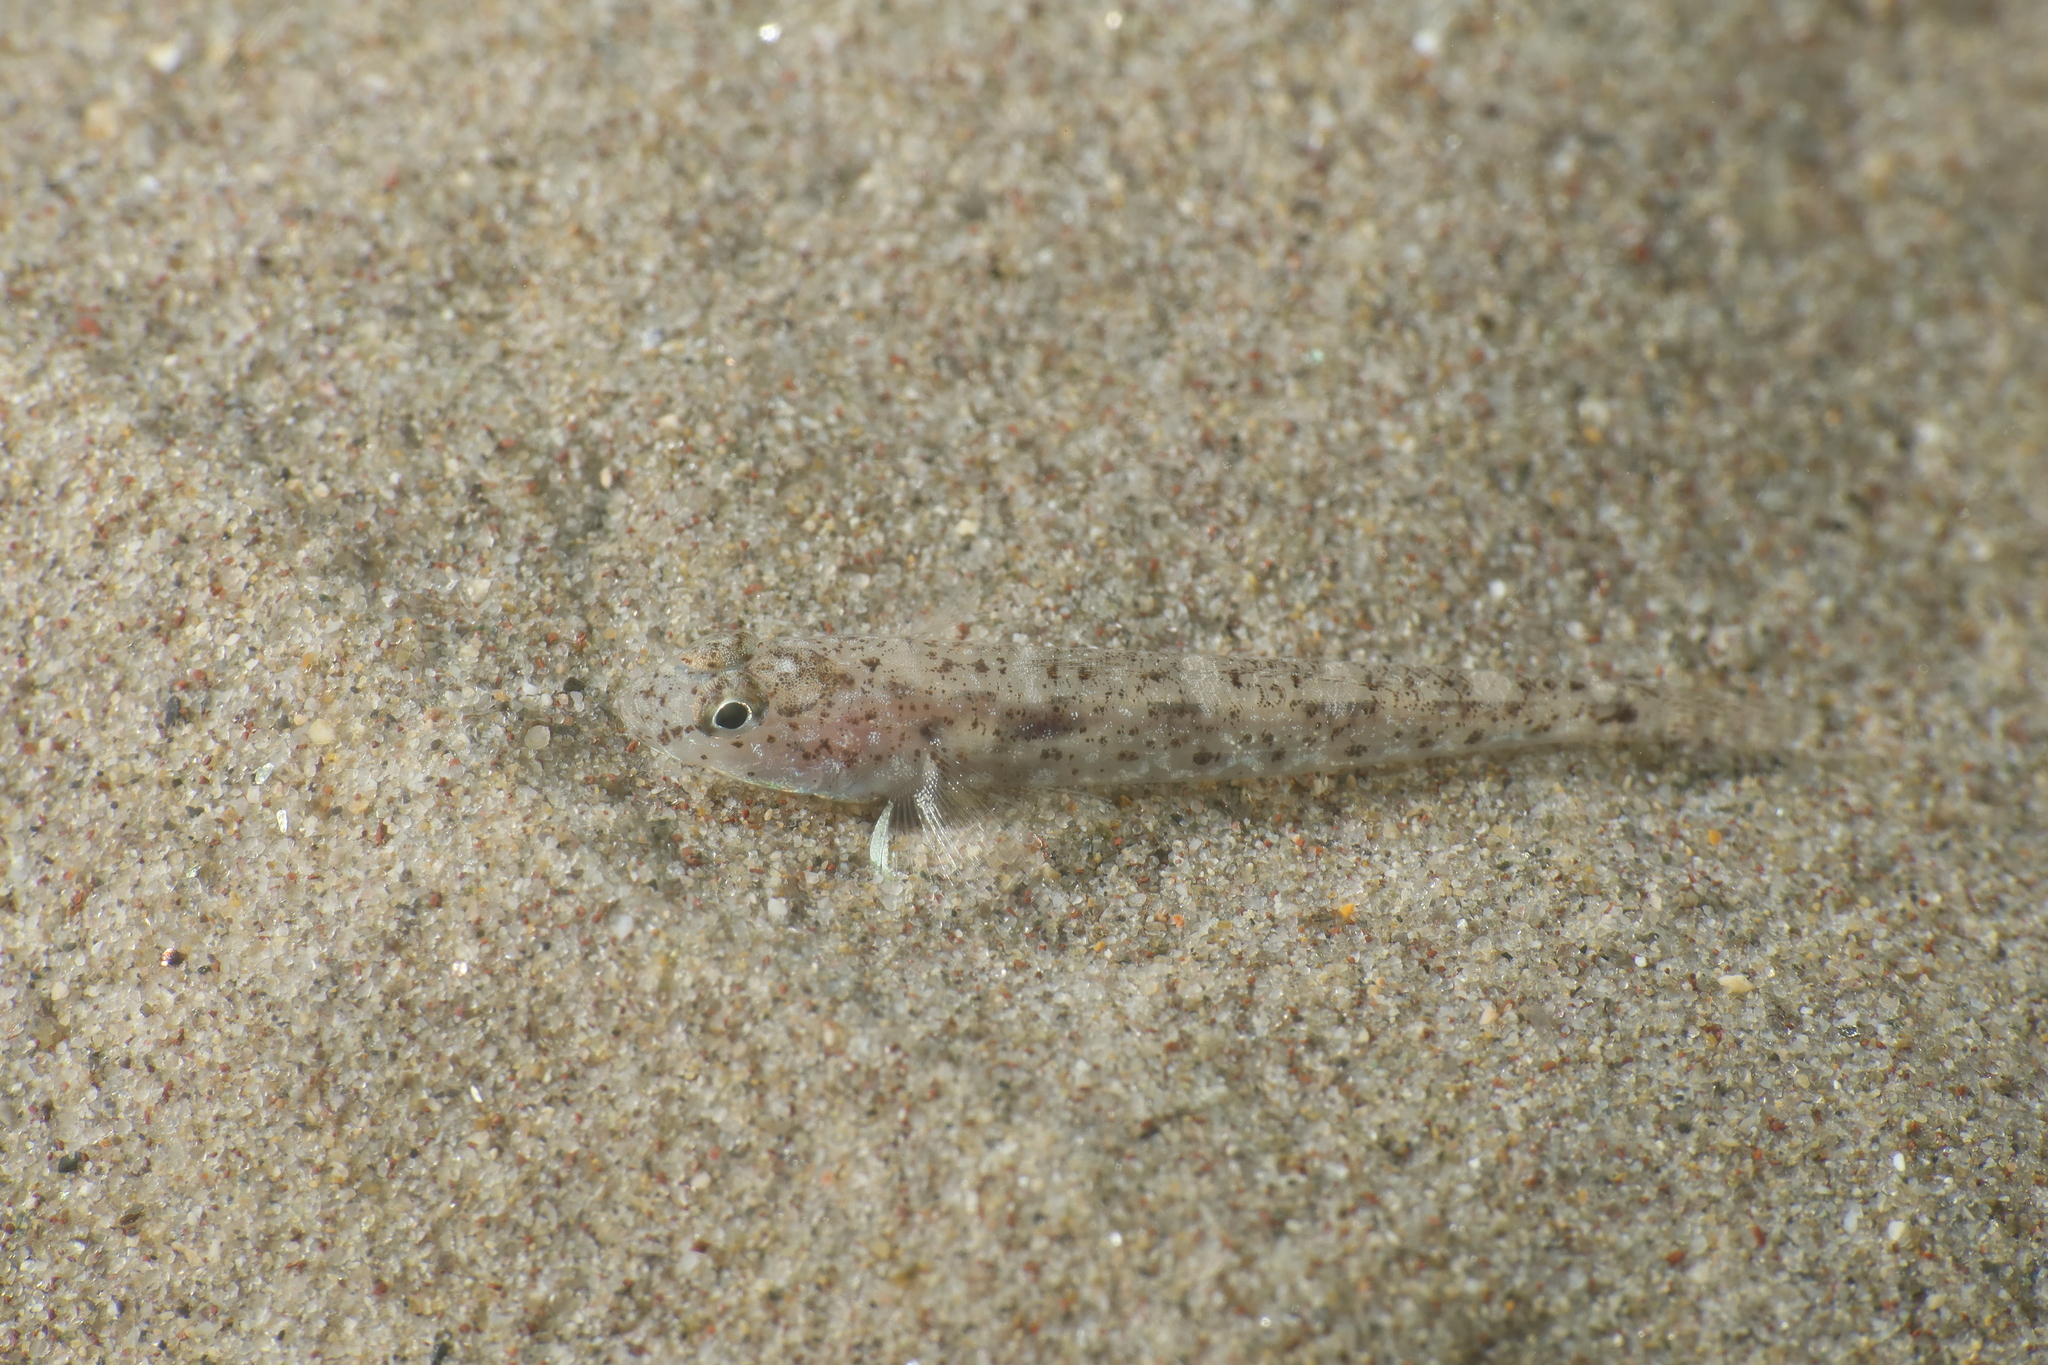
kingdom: Animalia
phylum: Chordata
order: Perciformes
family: Gobiidae
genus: Pomatoschistus
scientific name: Pomatoschistus marmoratus
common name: Marbled goby
